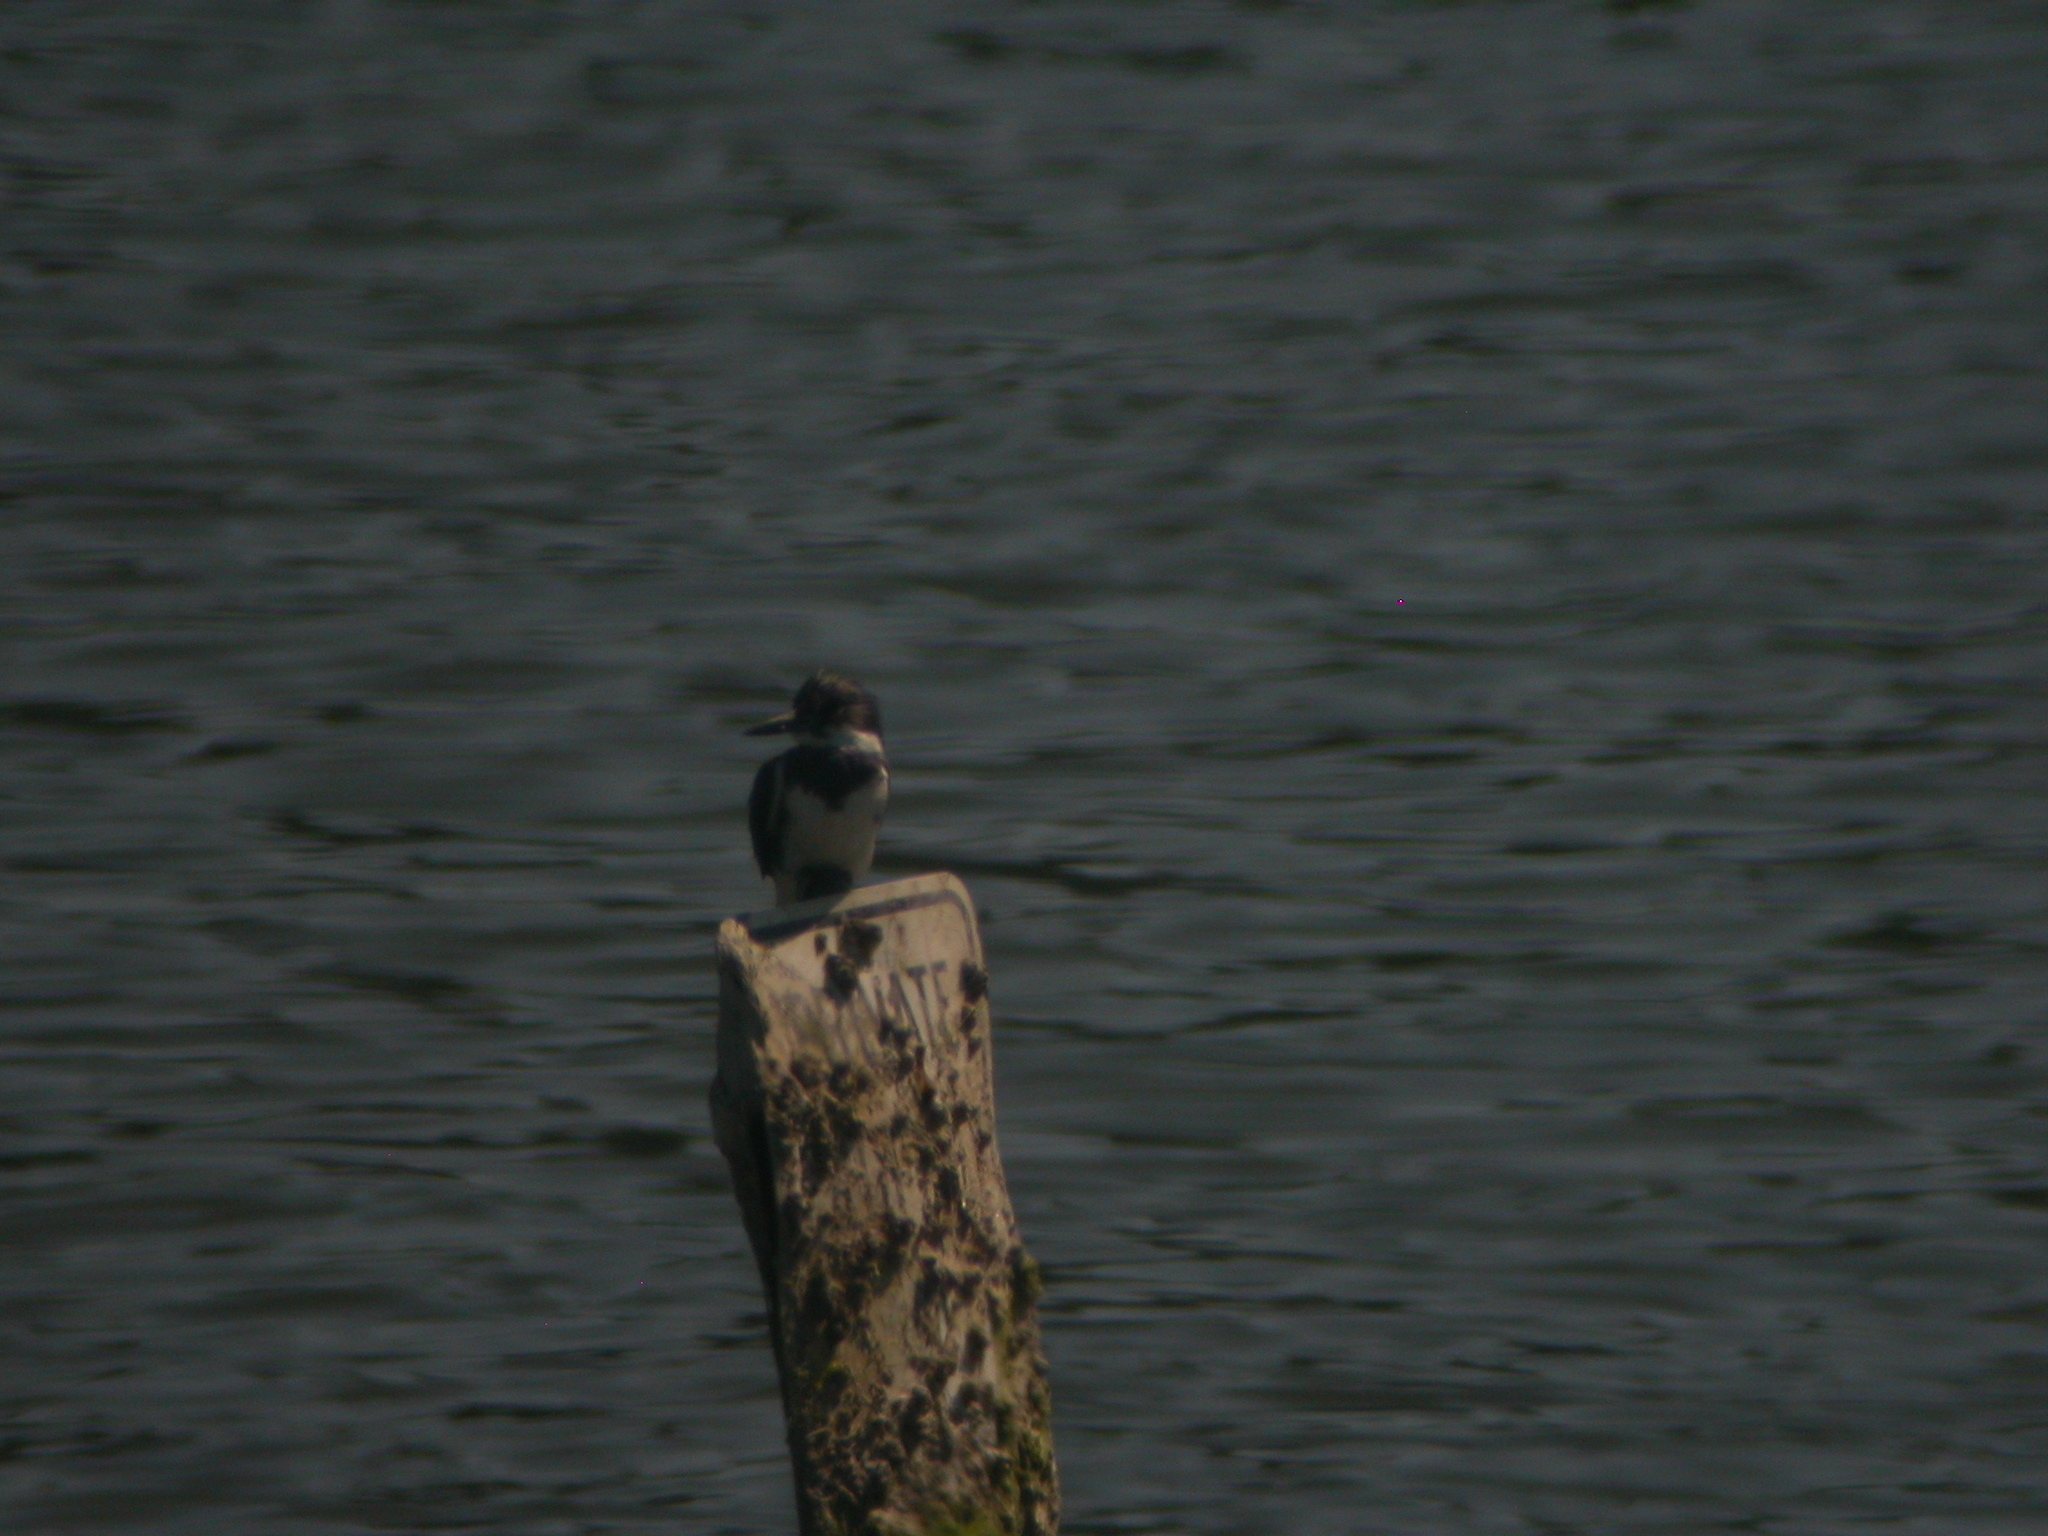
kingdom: Animalia
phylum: Chordata
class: Aves
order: Coraciiformes
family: Alcedinidae
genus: Megaceryle
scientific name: Megaceryle alcyon
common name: Belted kingfisher
